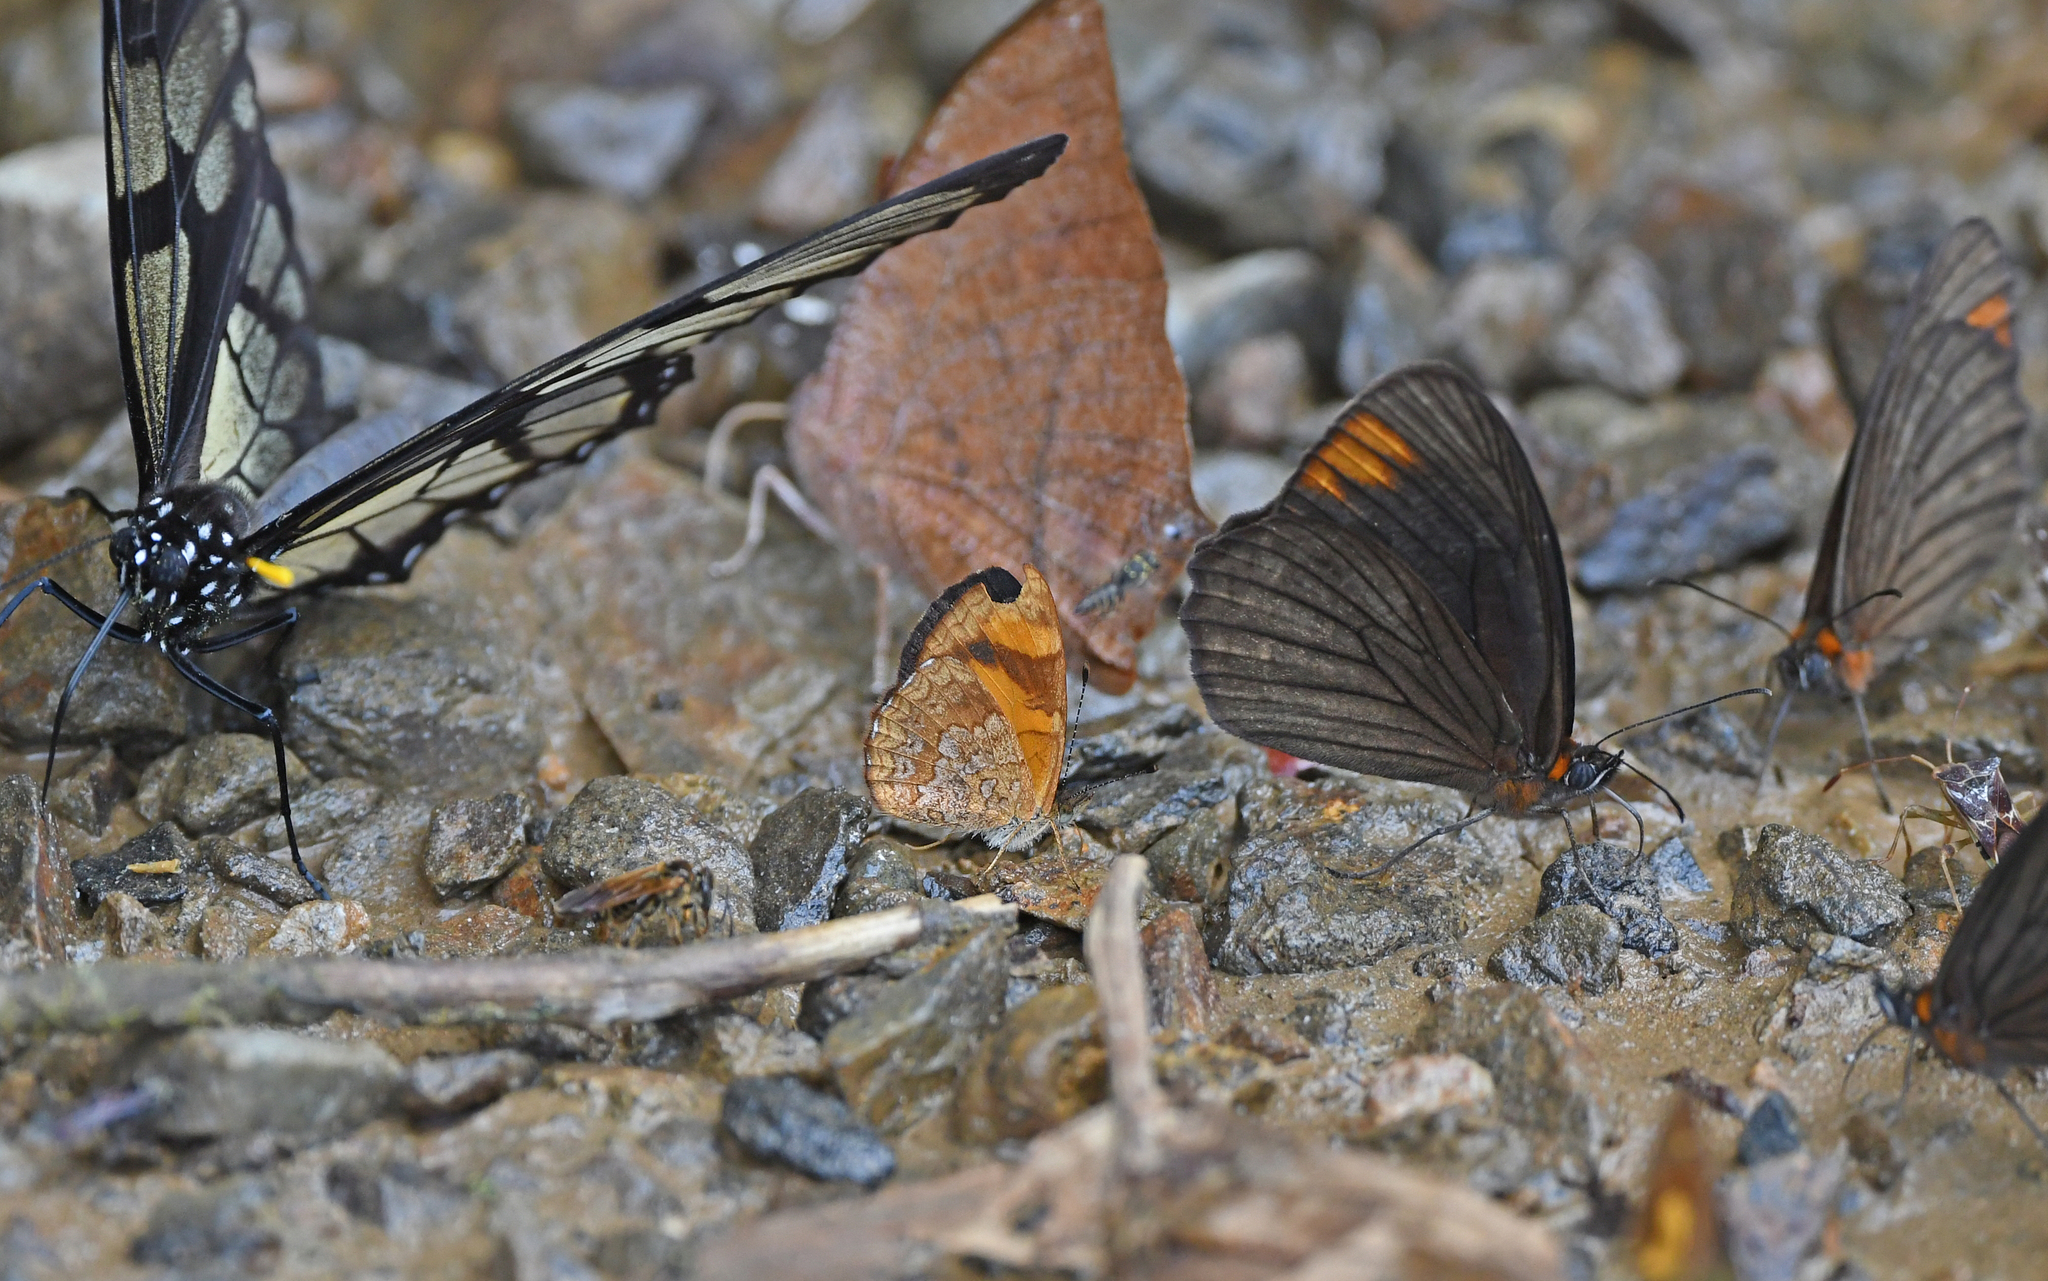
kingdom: Animalia
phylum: Arthropoda
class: Insecta
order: Lepidoptera
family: Nymphalidae
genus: Tegosa
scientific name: Tegosa etia
